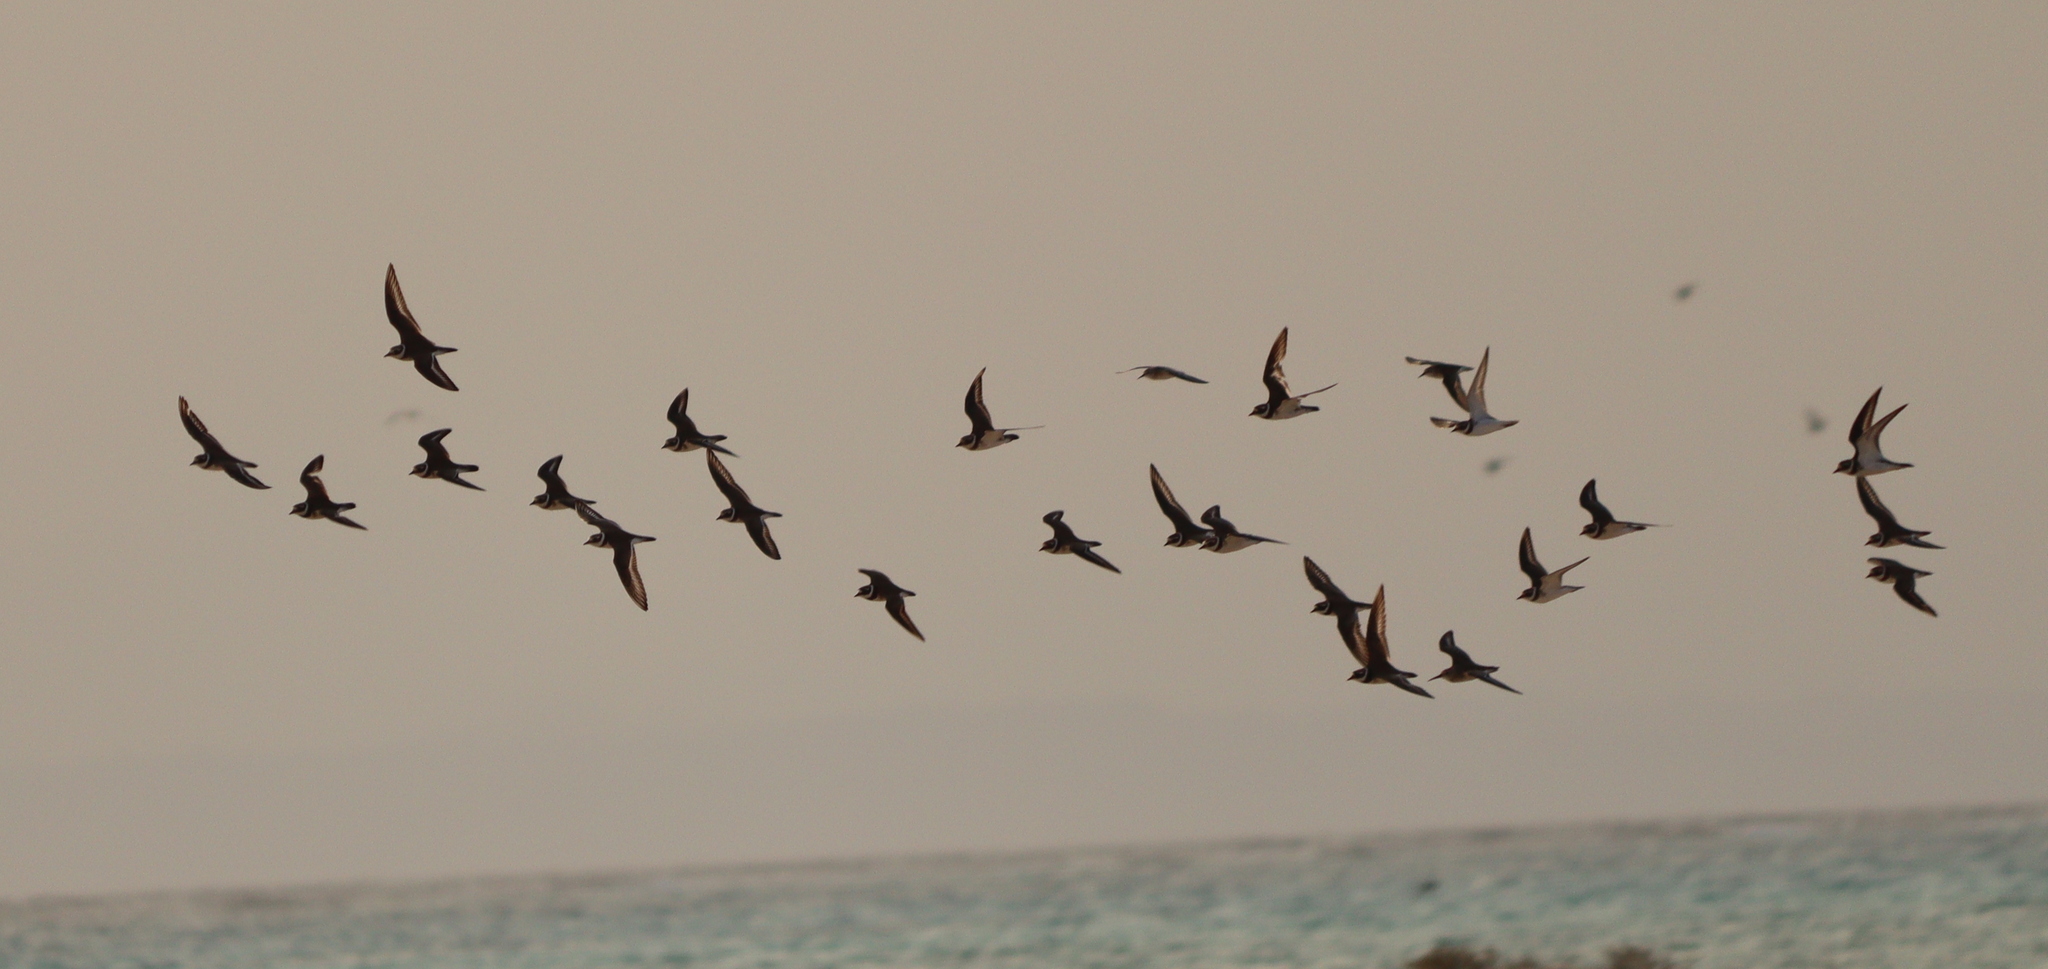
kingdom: Animalia
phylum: Chordata
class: Aves
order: Charadriiformes
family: Charadriidae
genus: Charadrius
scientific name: Charadrius hiaticula
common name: Common ringed plover
